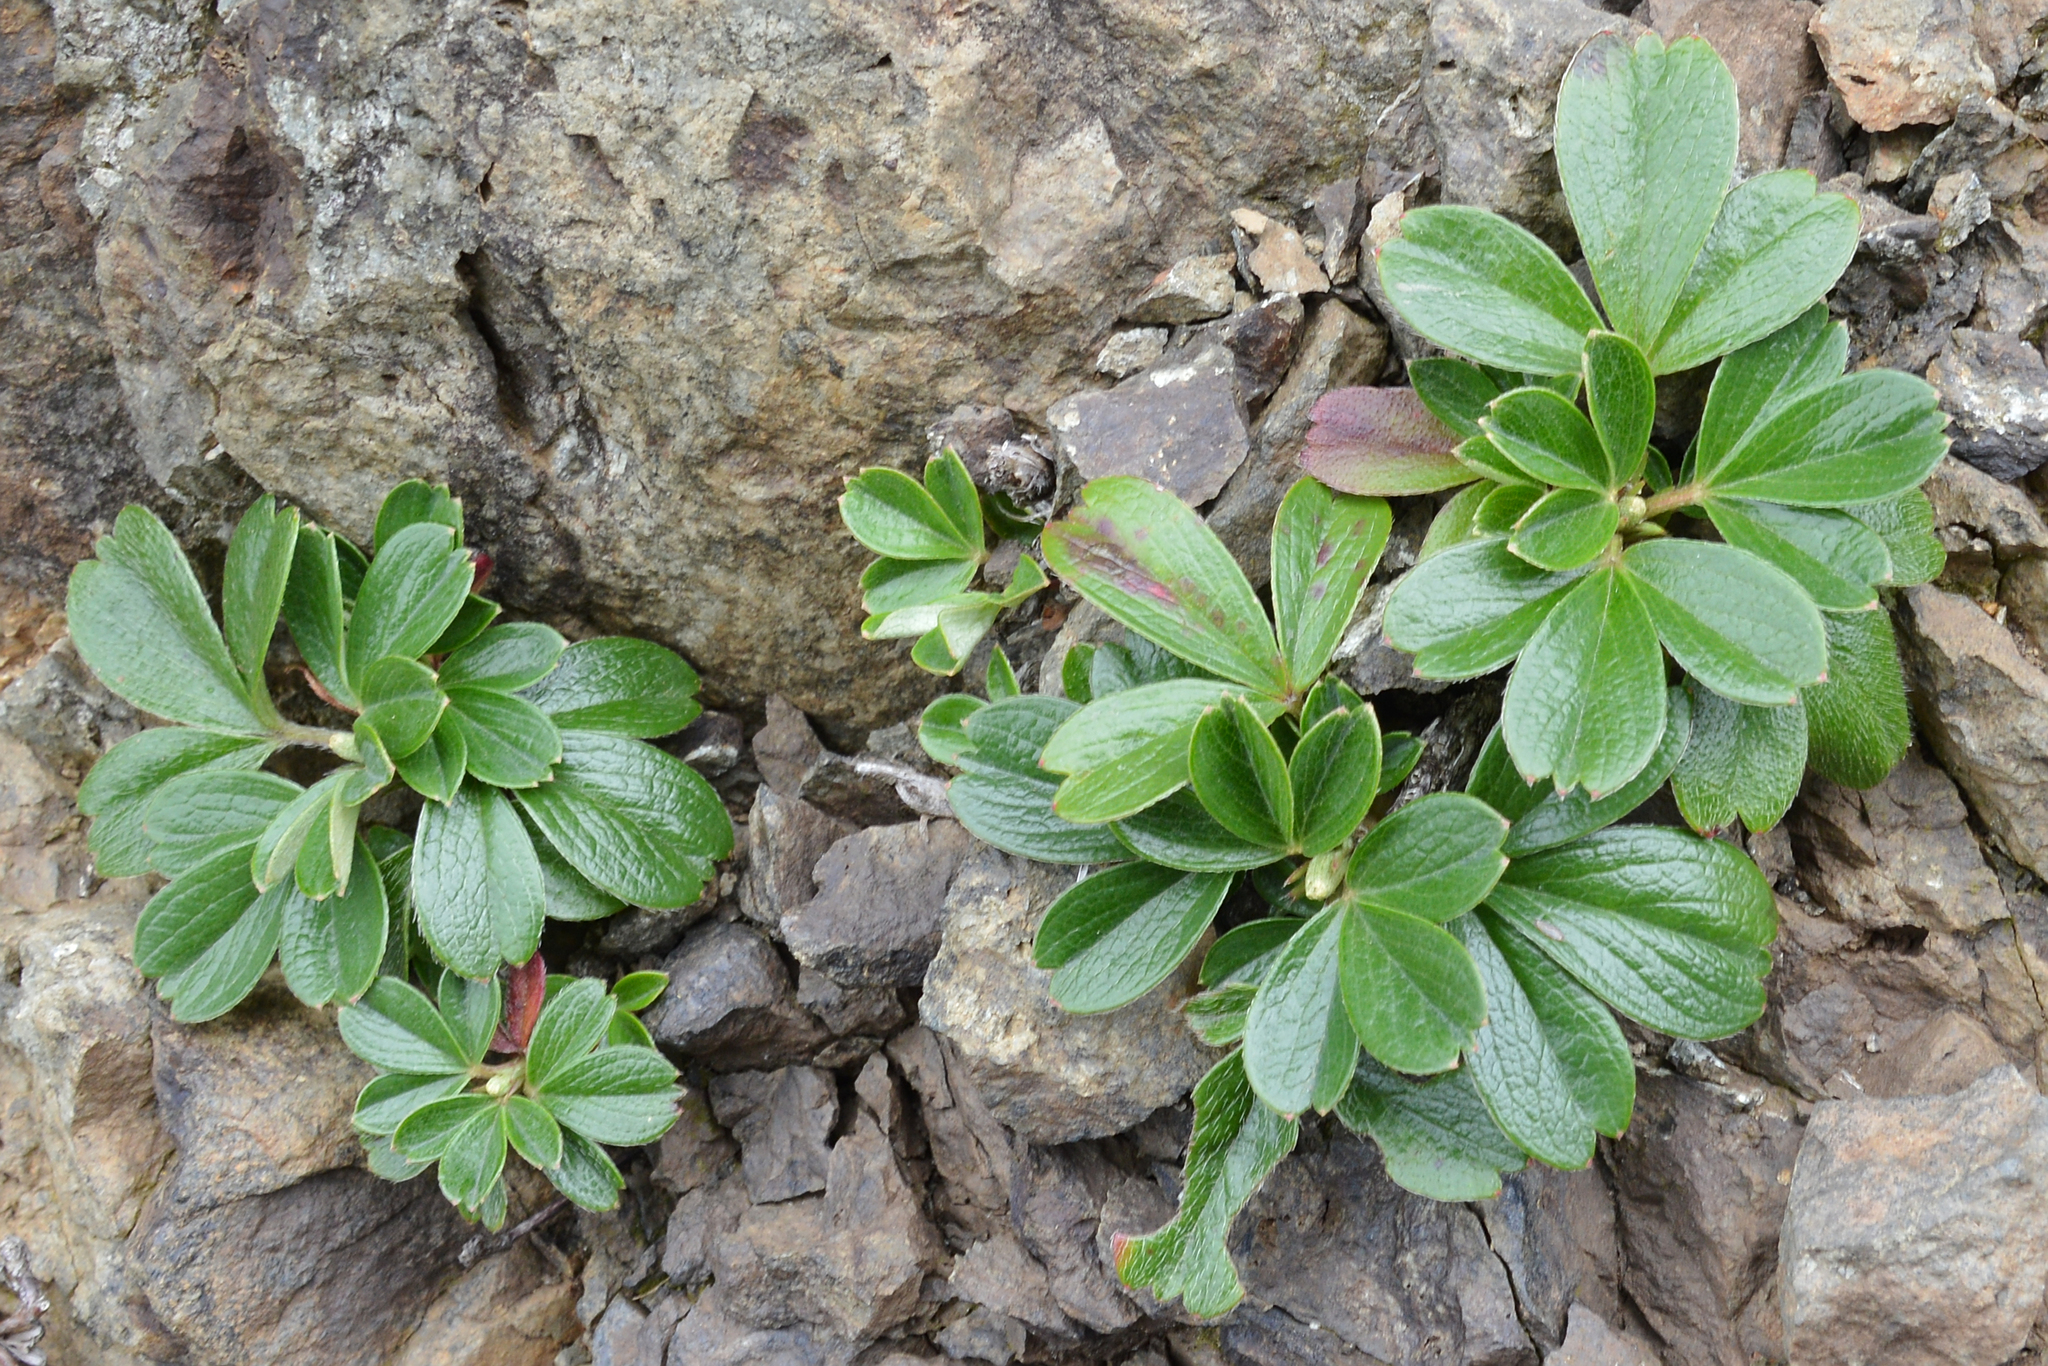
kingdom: Plantae
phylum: Tracheophyta
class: Magnoliopsida
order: Rosales
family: Rosaceae
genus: Sibbaldia
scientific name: Sibbaldia tridentata
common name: Three-toothed cinquefoil
